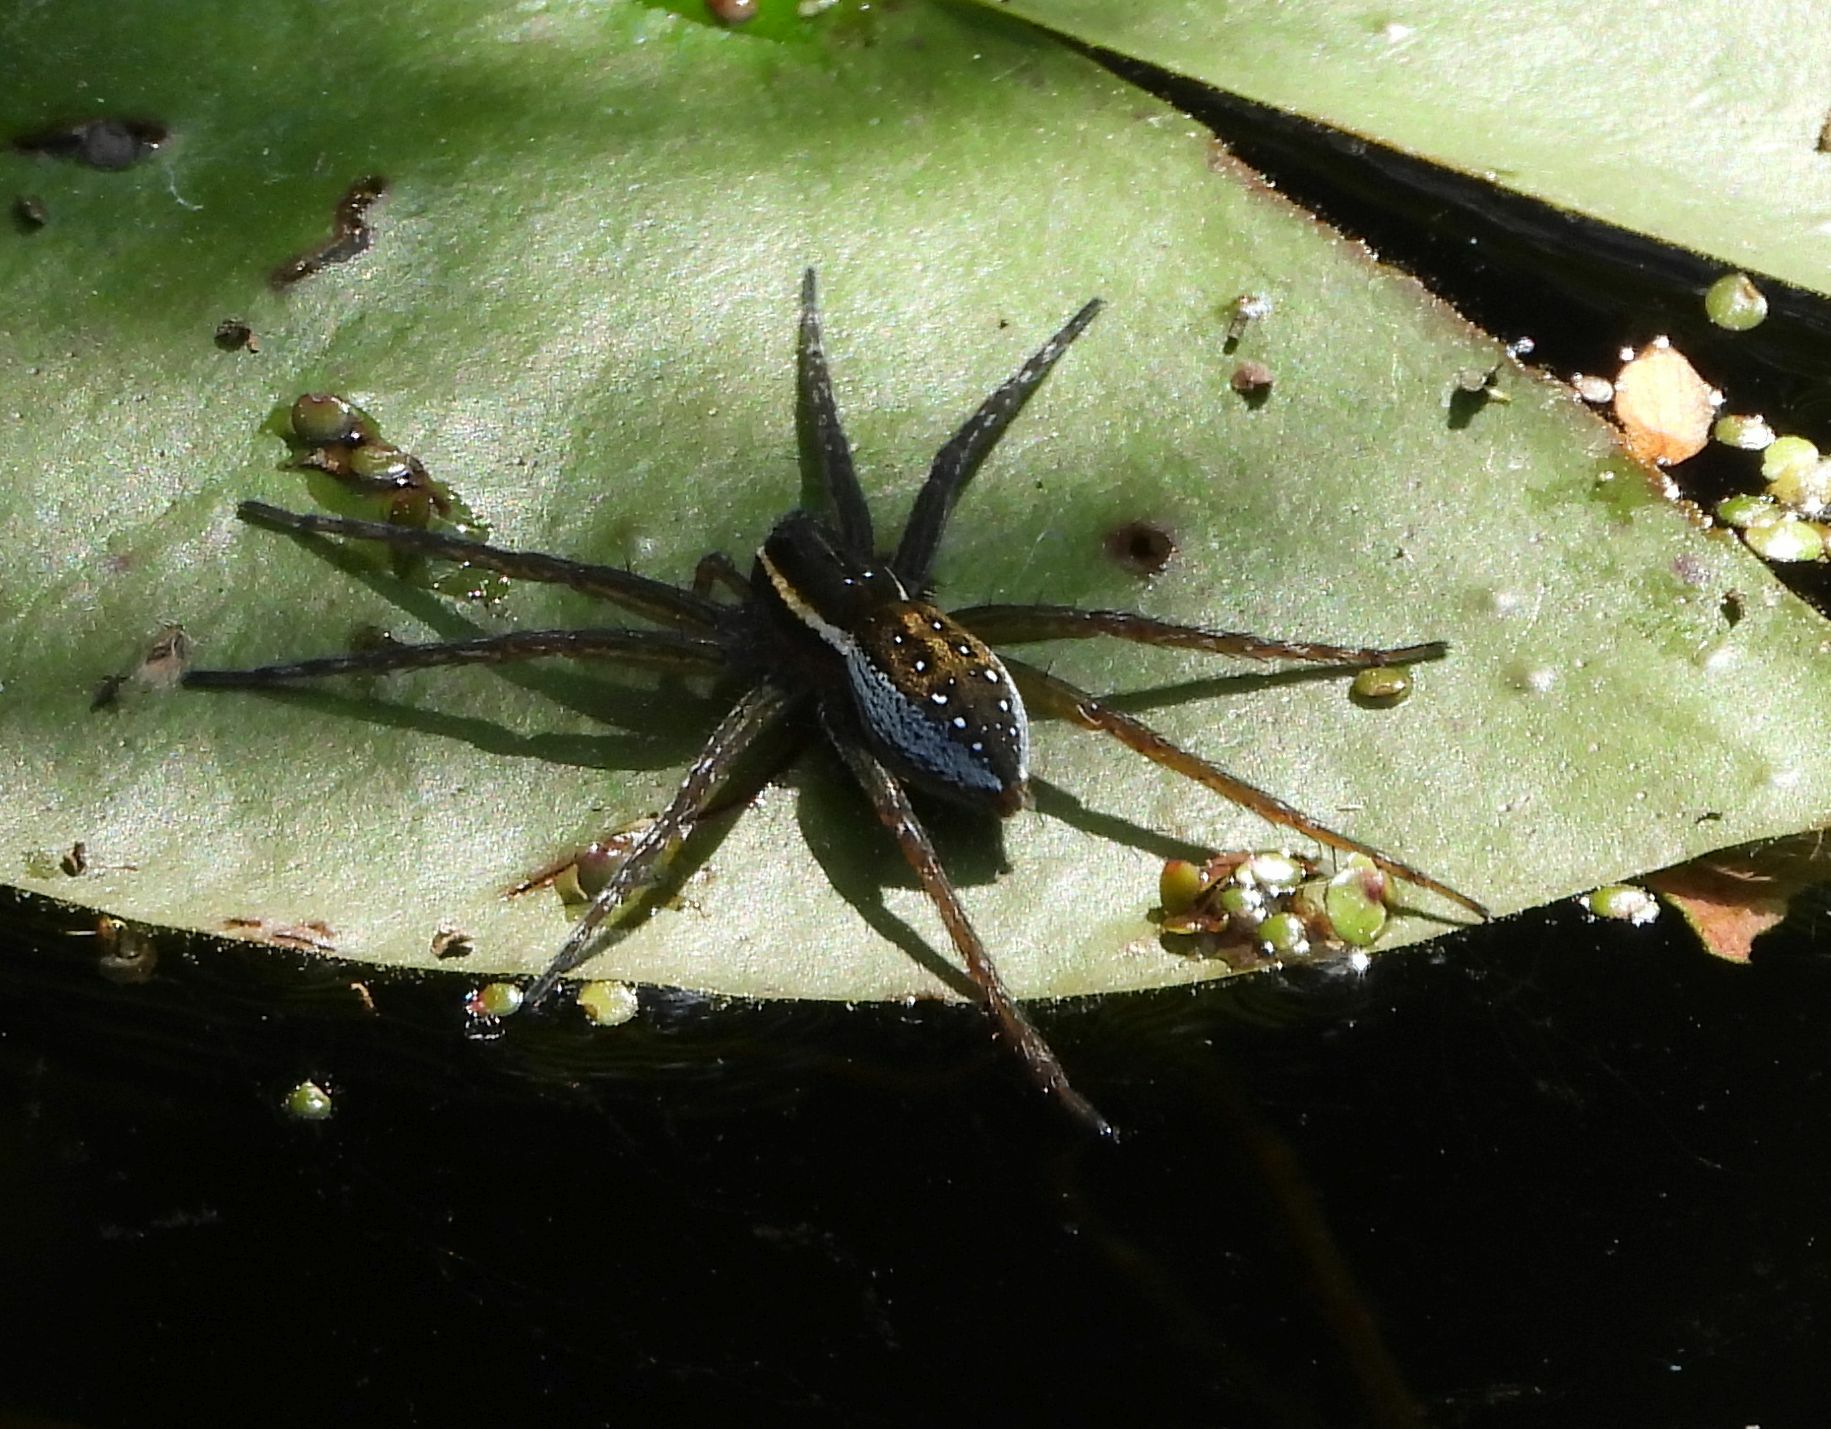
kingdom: Animalia
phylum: Arthropoda
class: Arachnida
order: Araneae
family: Pisauridae
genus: Dolomedes
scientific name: Dolomedes triton
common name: Six-spotted fishing spider
